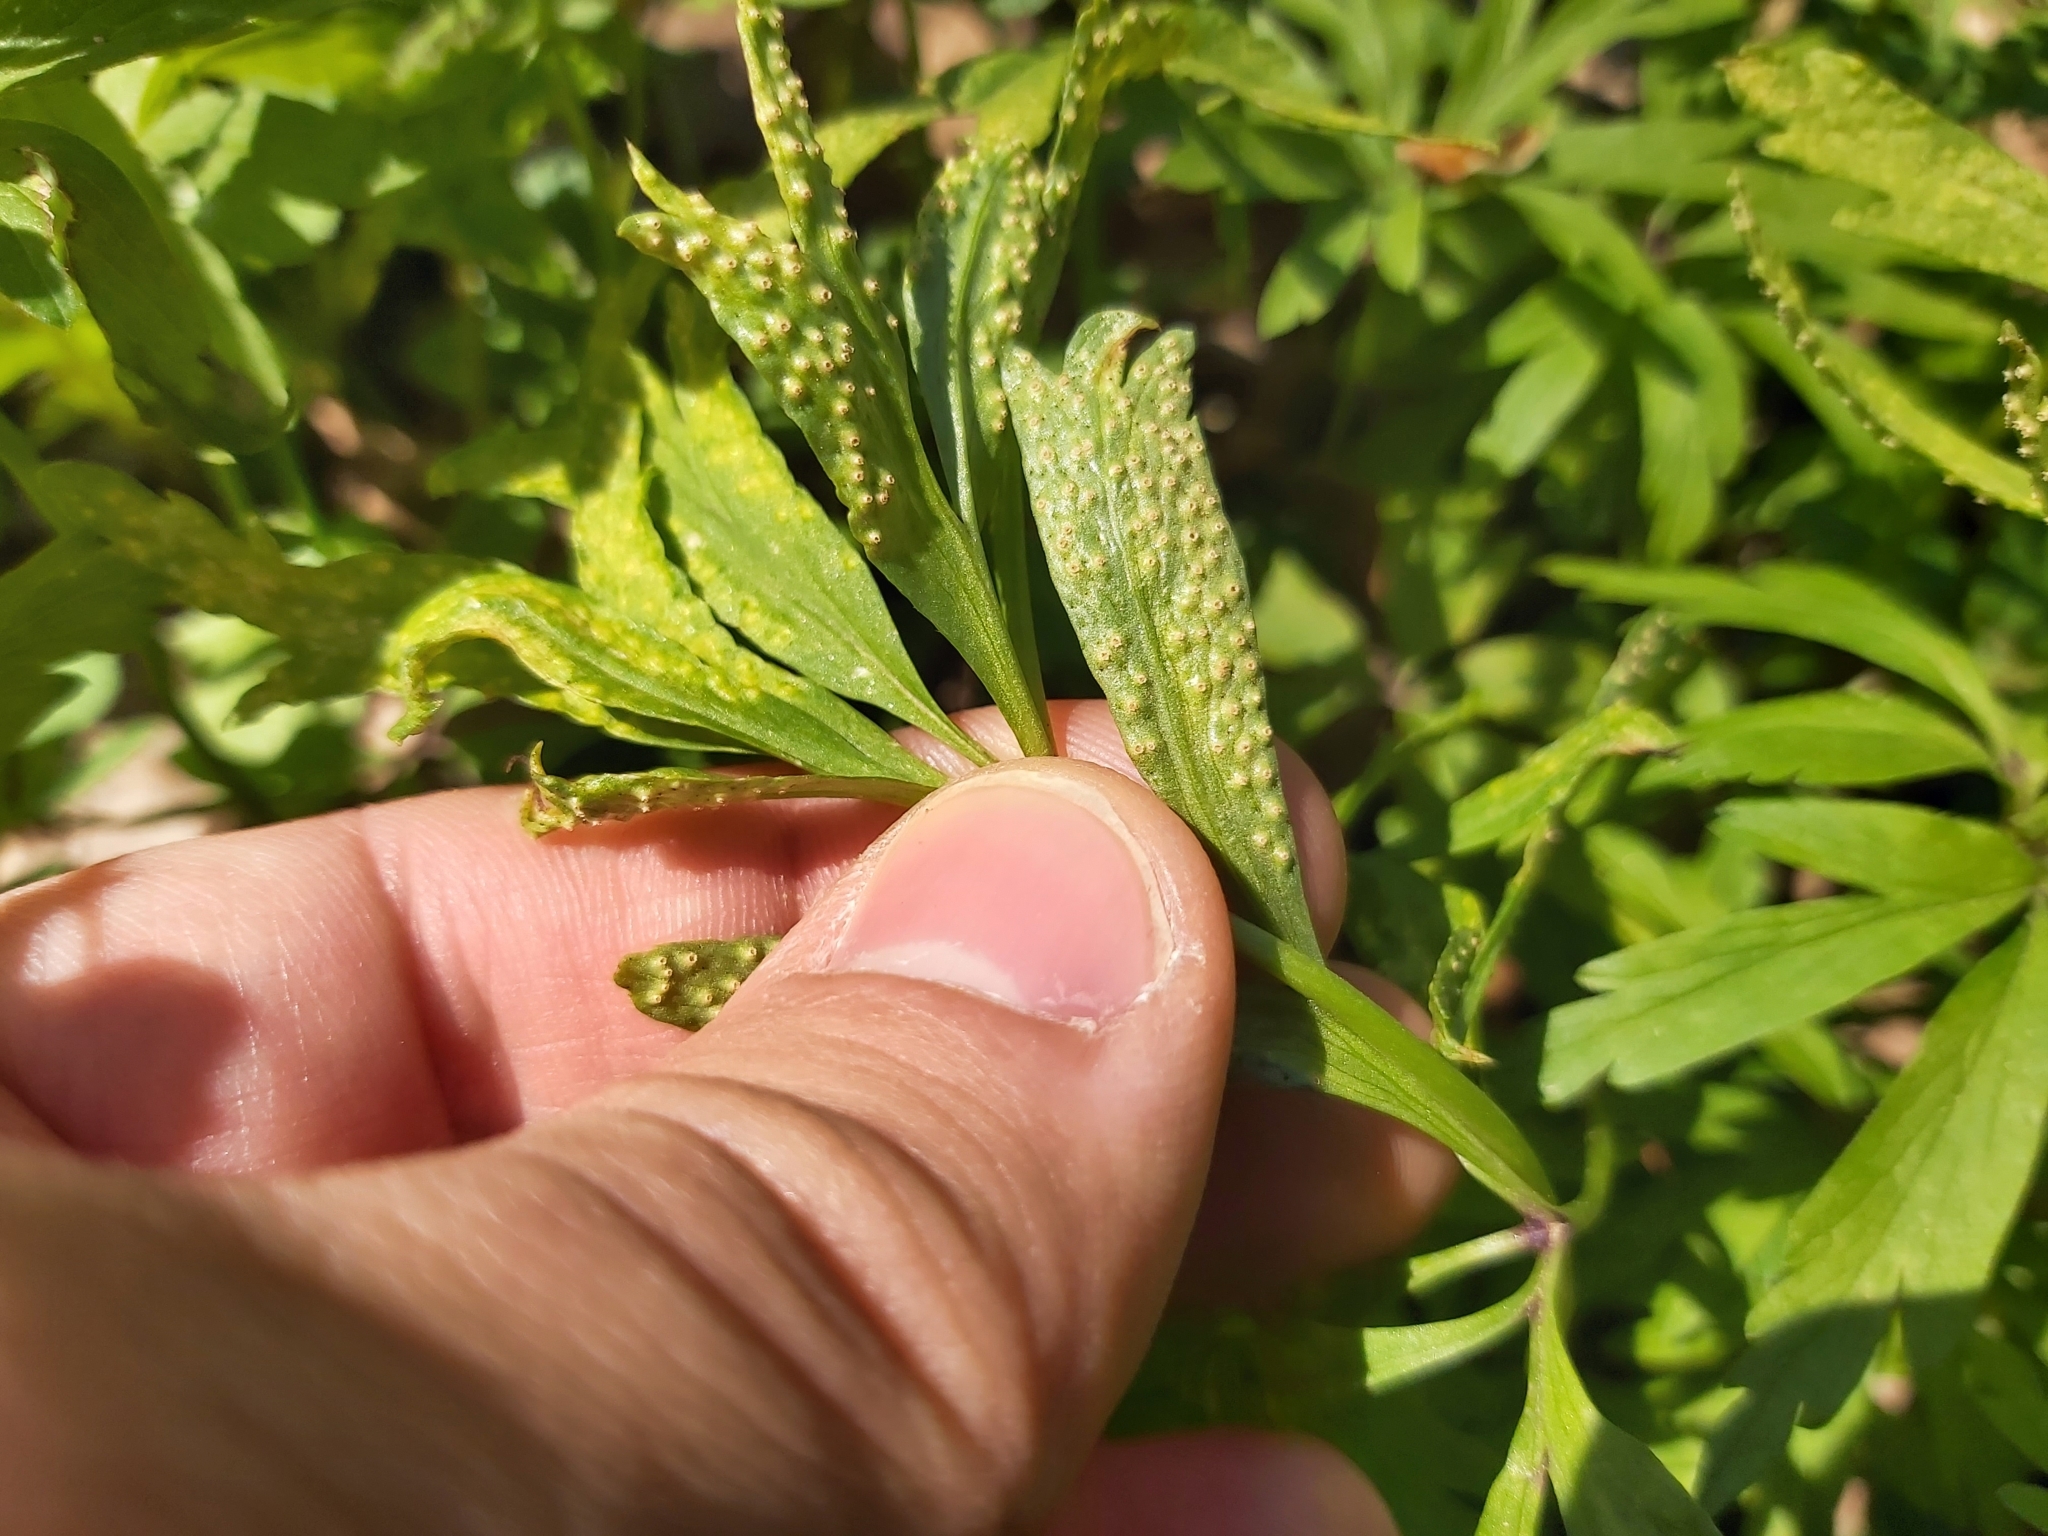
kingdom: Fungi
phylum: Basidiomycota
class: Pucciniomycetes
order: Pucciniales
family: Tranzscheliaceae
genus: Tranzschelia
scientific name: Tranzschelia pruni-spinosae
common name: Blackthorn rust
